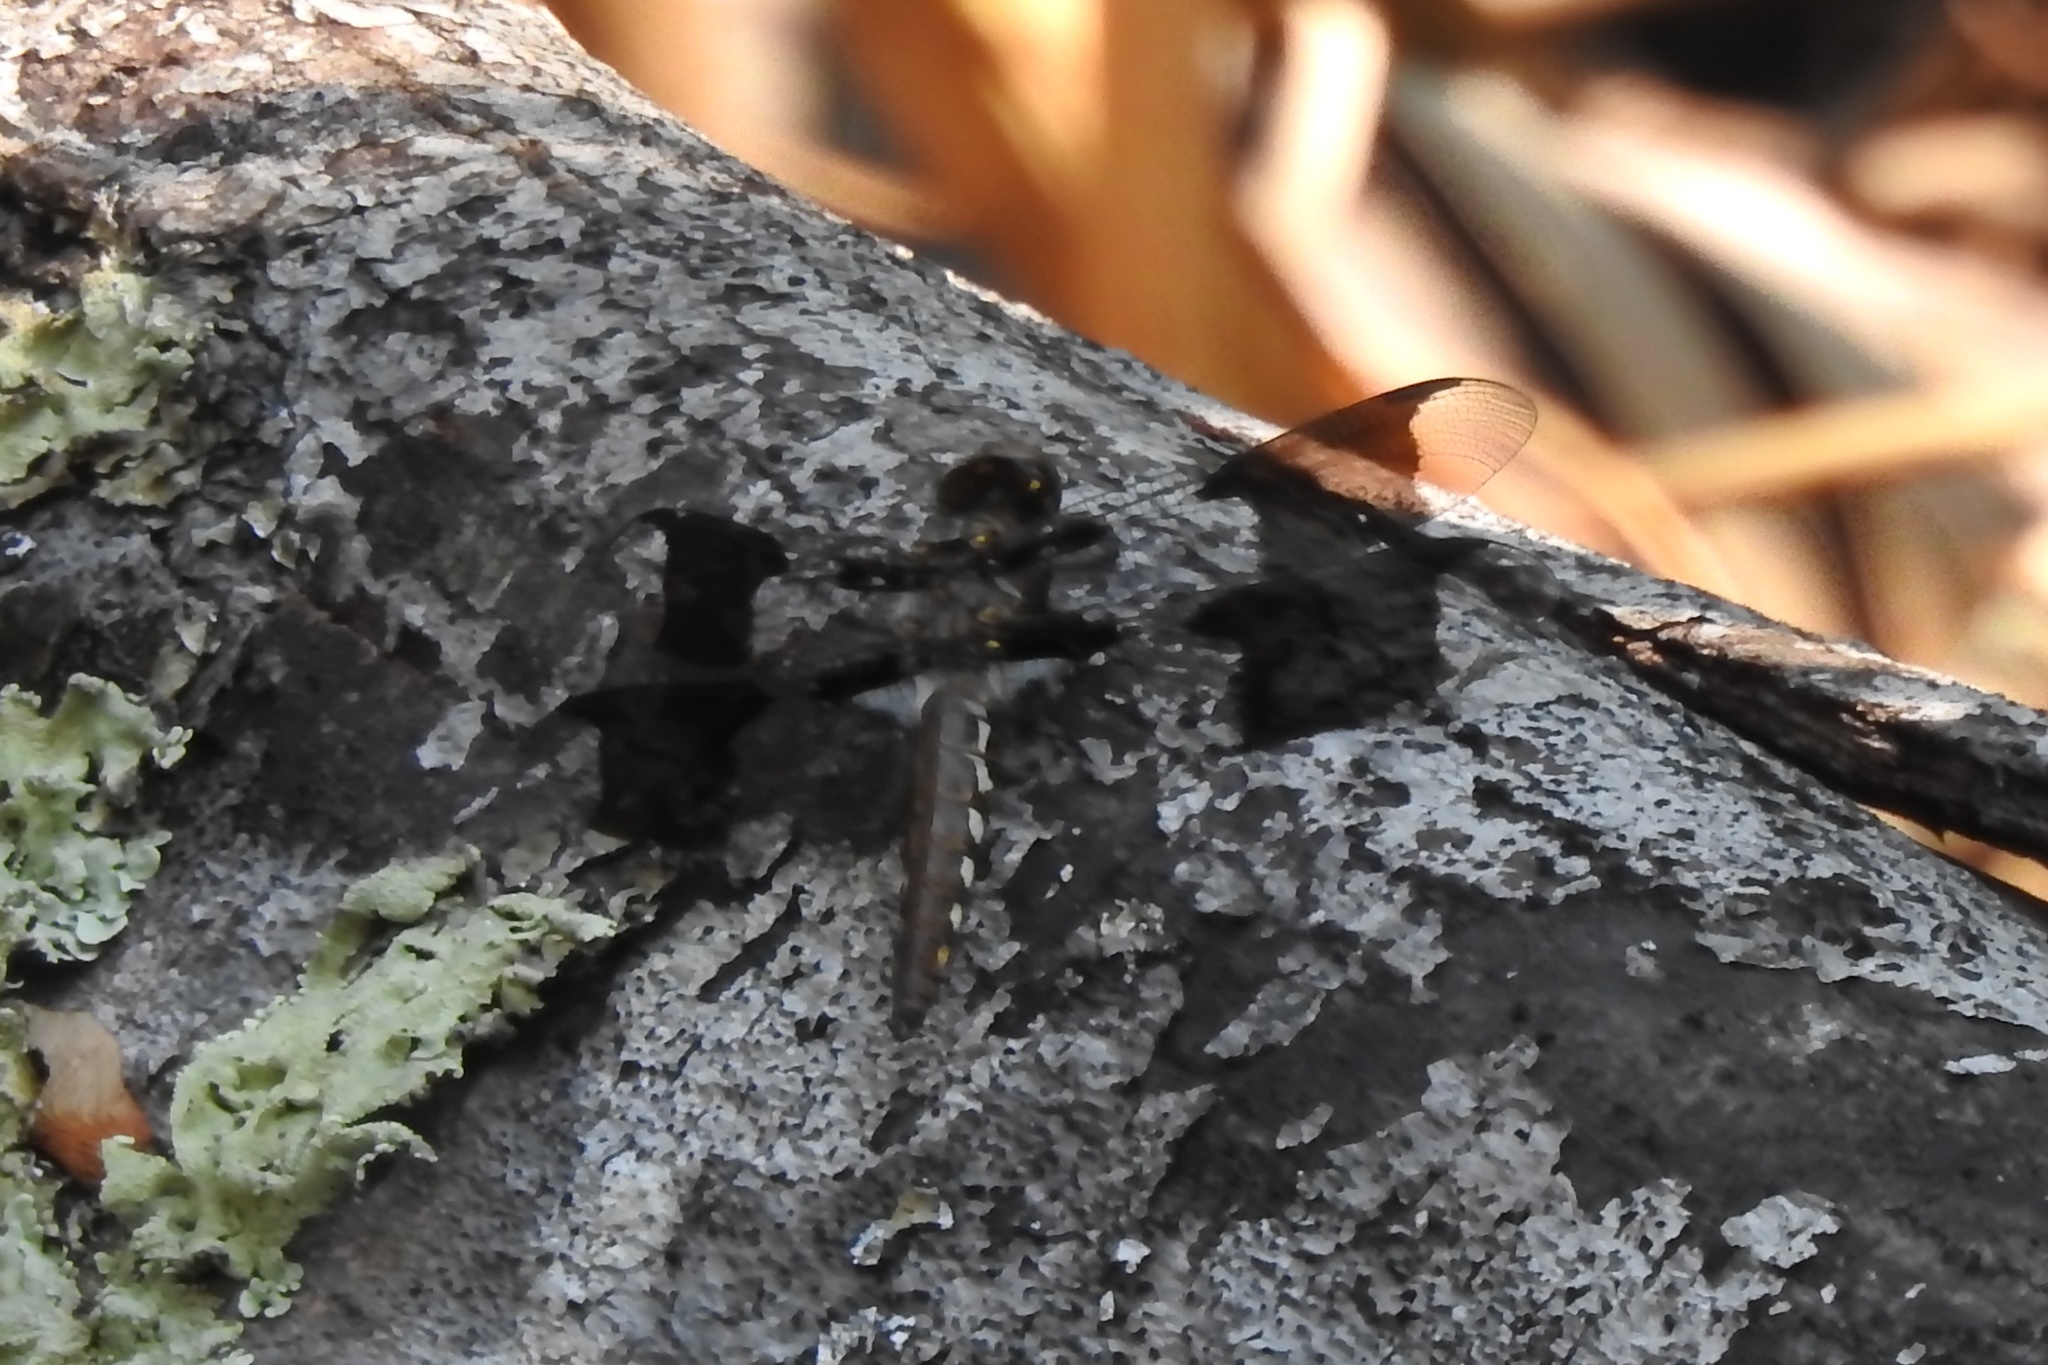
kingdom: Animalia
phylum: Arthropoda
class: Insecta
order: Odonata
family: Libellulidae
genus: Plathemis
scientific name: Plathemis lydia
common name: Common whitetail
